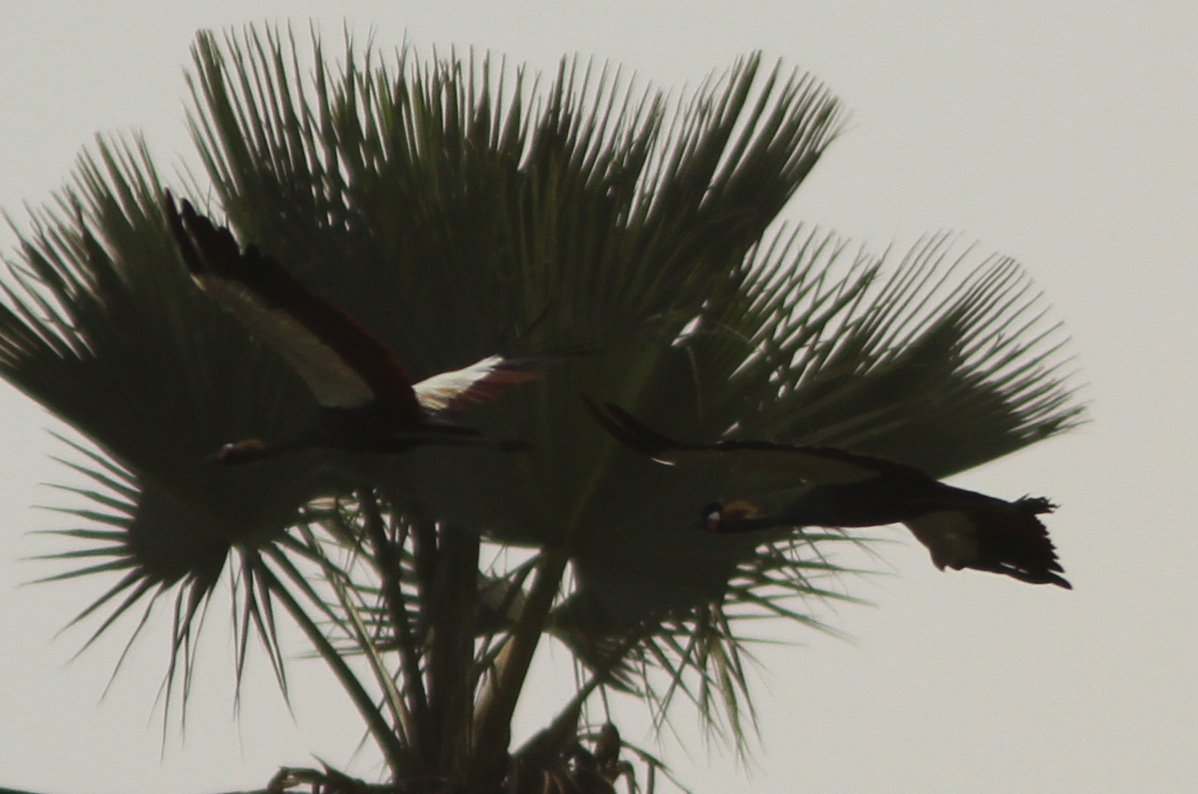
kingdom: Animalia
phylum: Chordata
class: Aves
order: Gruiformes
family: Gruidae
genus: Balearica
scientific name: Balearica pavonina
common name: Black crowned crane
